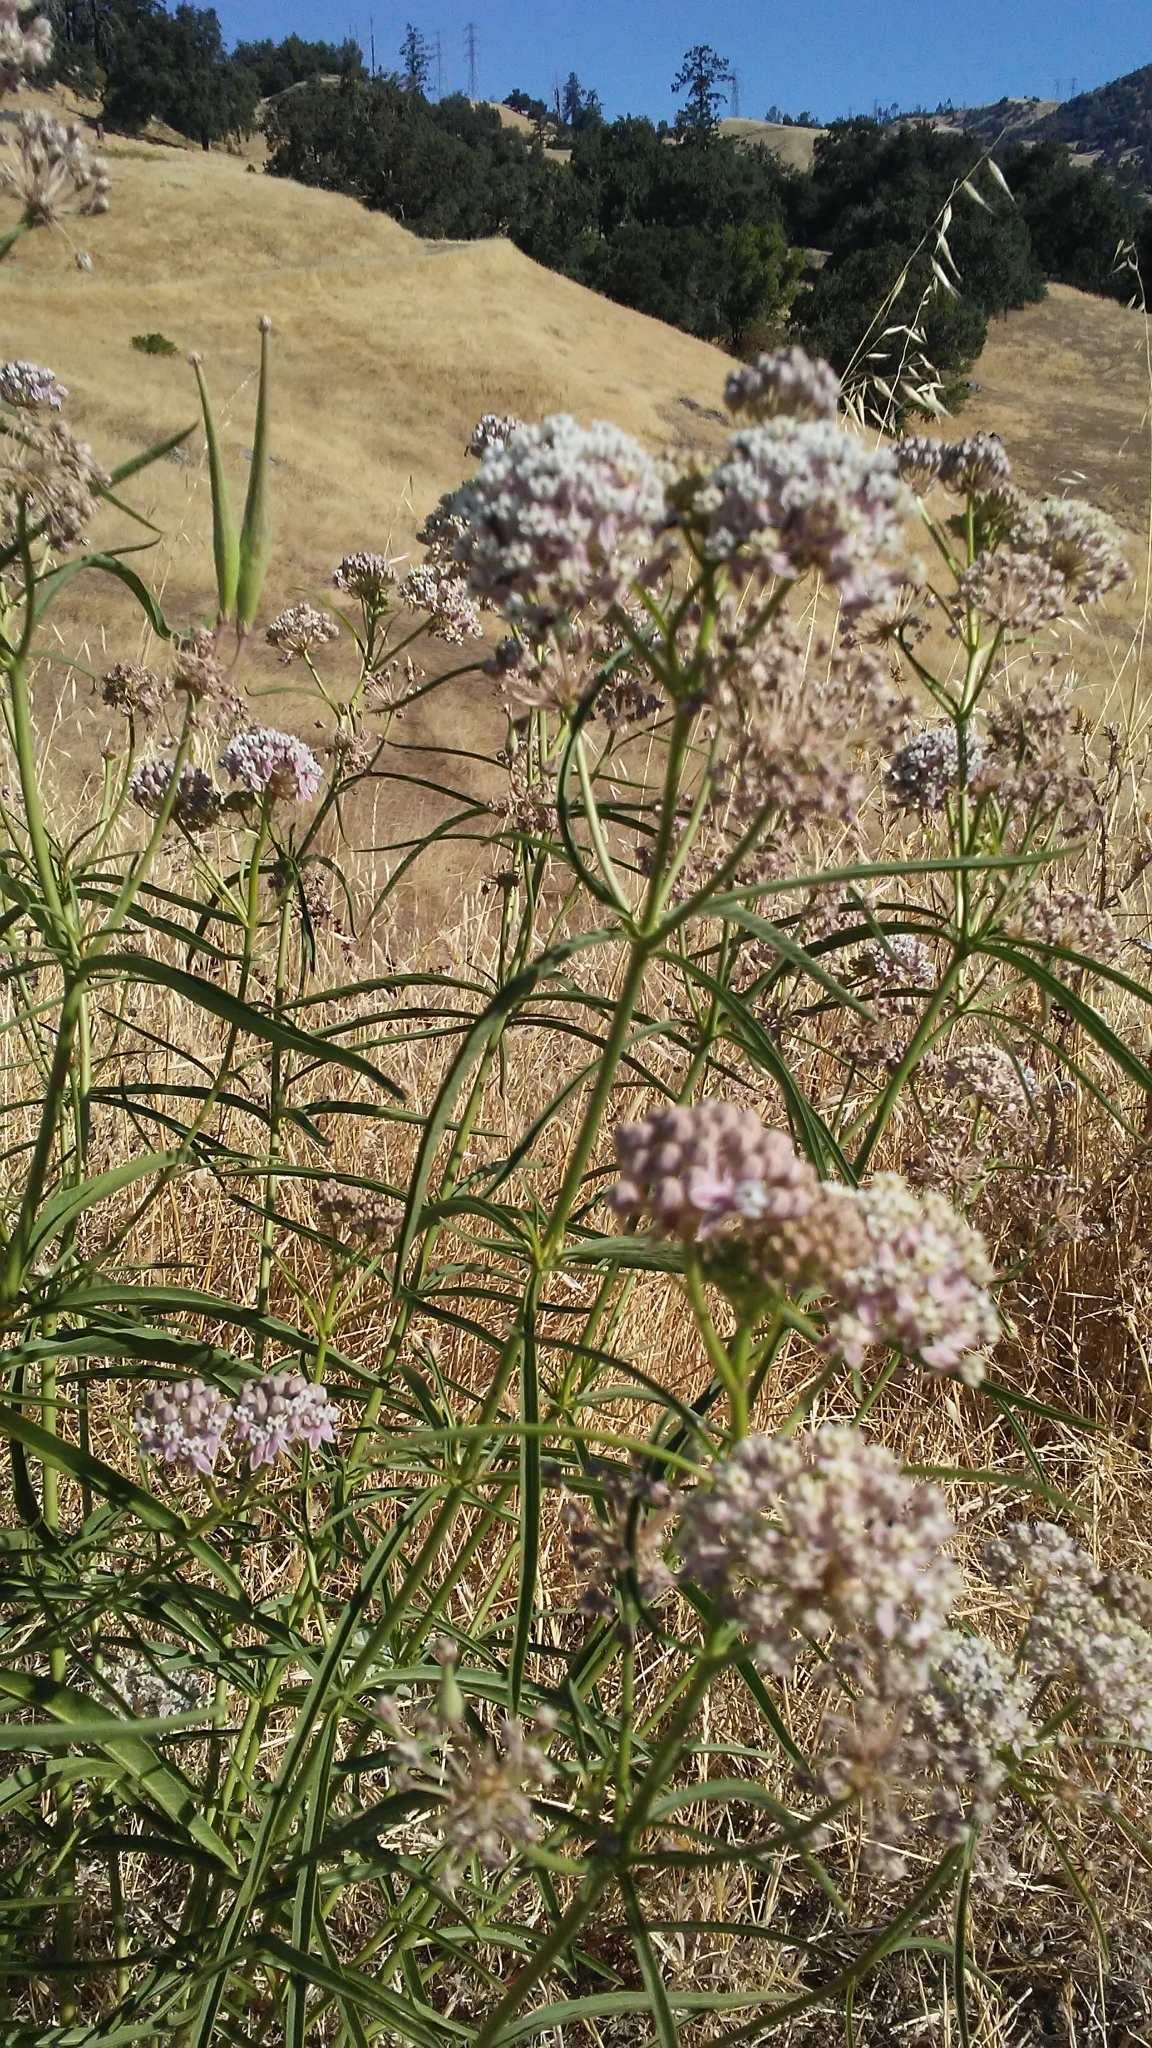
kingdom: Plantae
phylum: Tracheophyta
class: Magnoliopsida
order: Gentianales
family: Apocynaceae
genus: Asclepias
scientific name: Asclepias fascicularis
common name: Mexican milkweed
